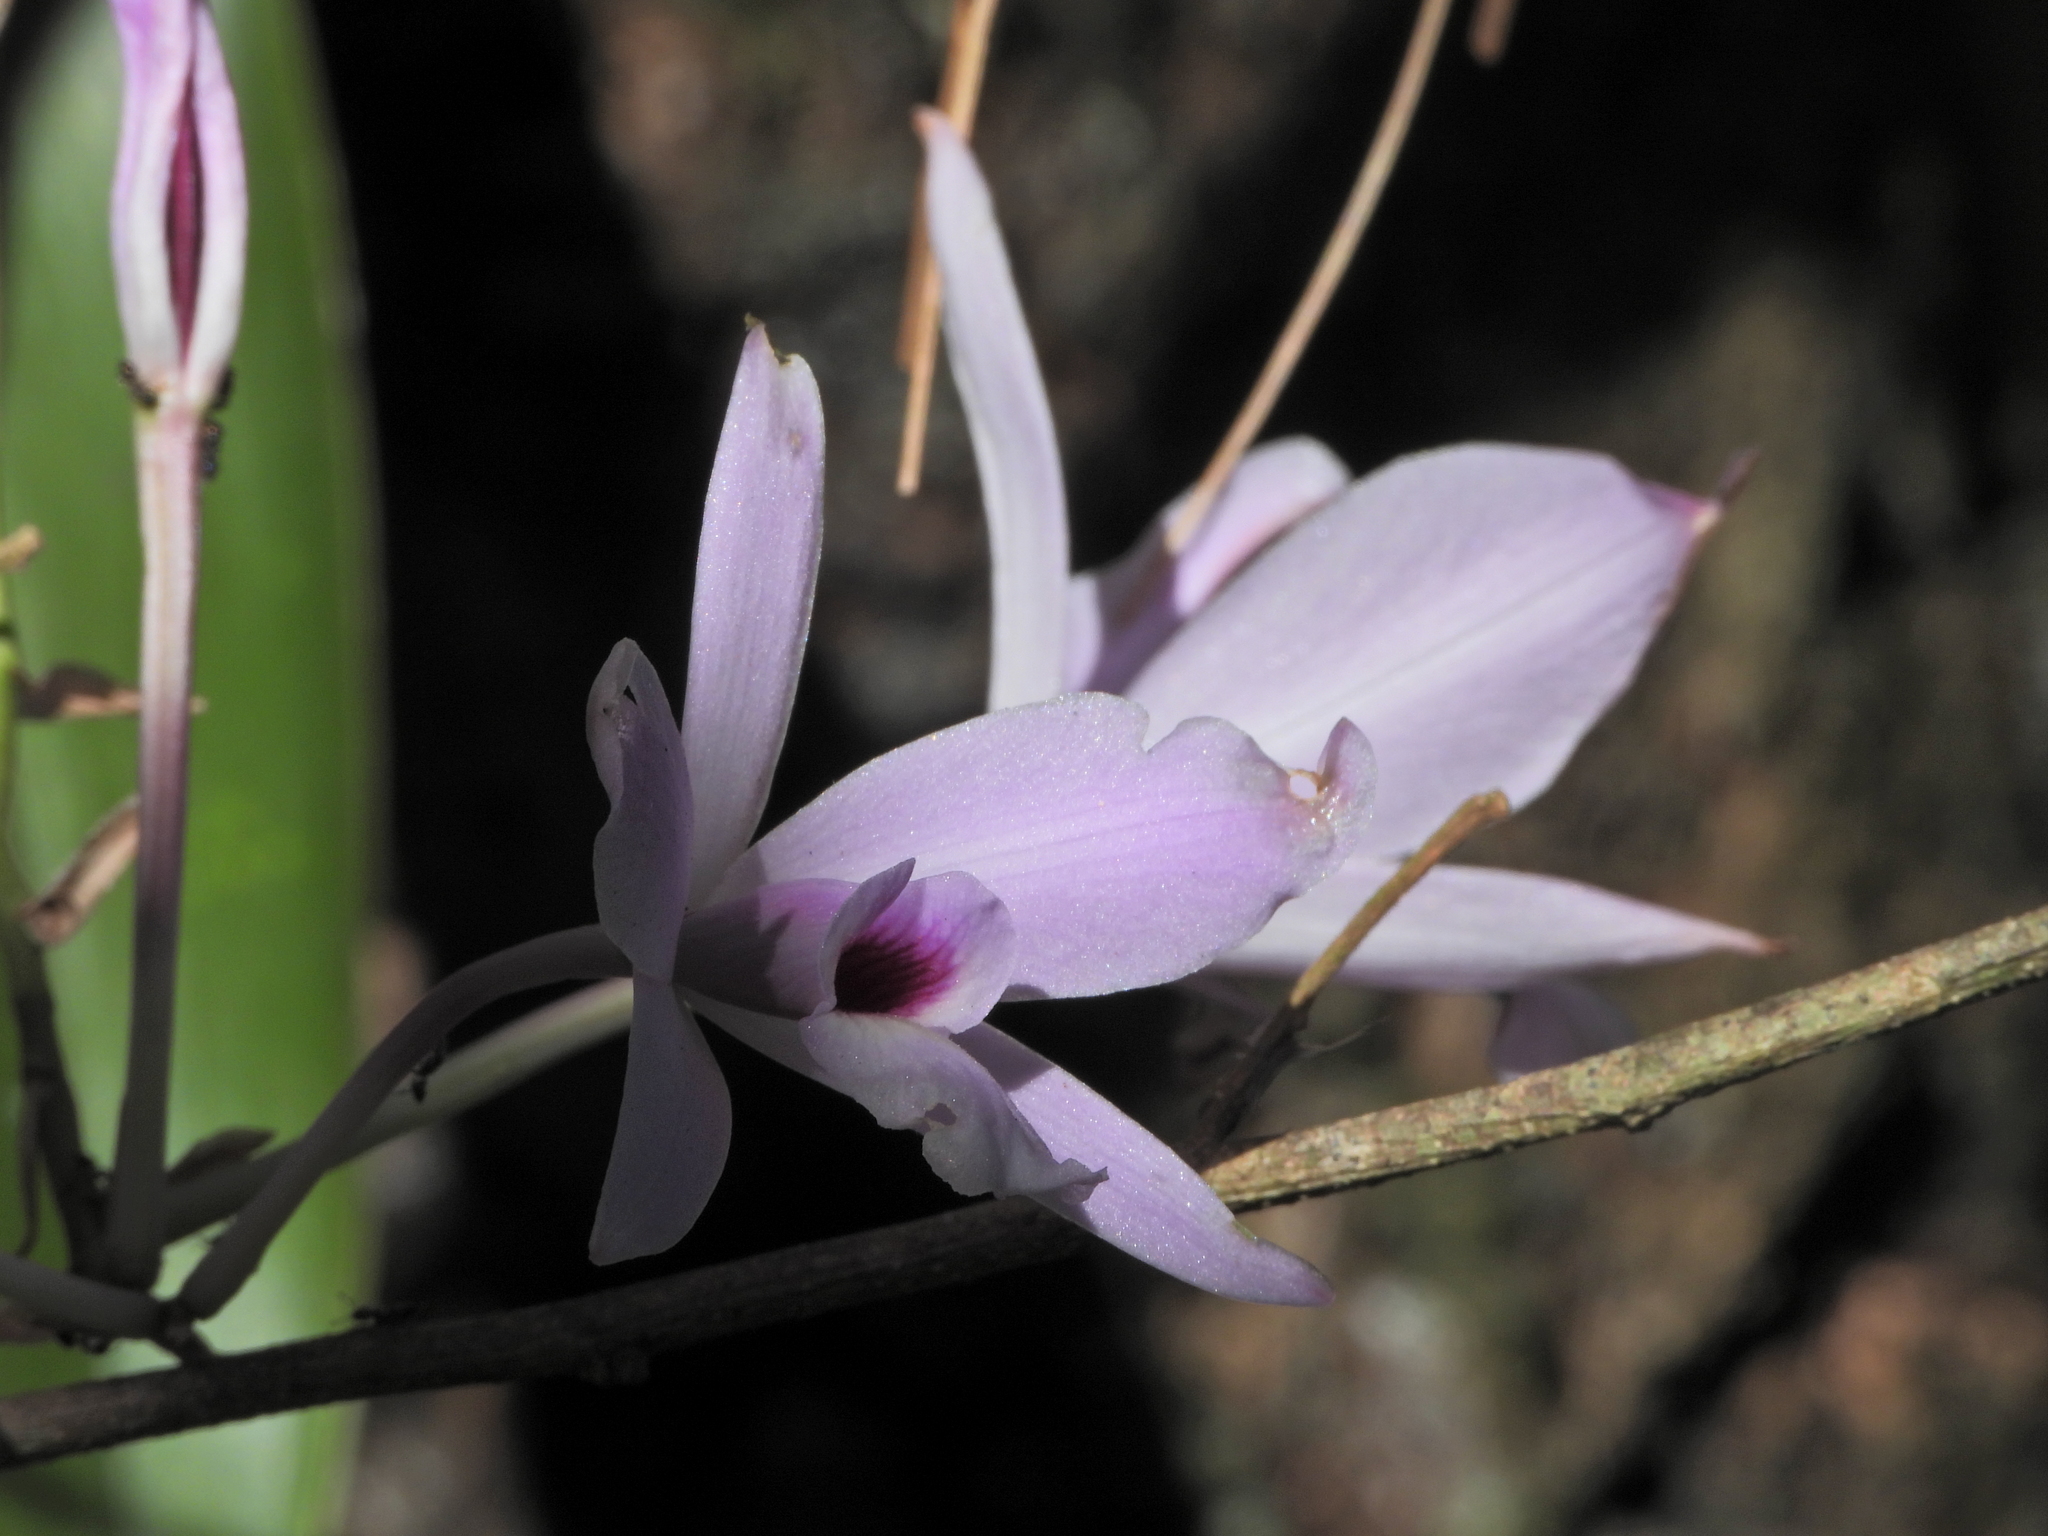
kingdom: Plantae
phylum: Tracheophyta
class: Liliopsida
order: Asparagales
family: Orchidaceae
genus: Laelia
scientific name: Laelia rubescens
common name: Pale laelia
